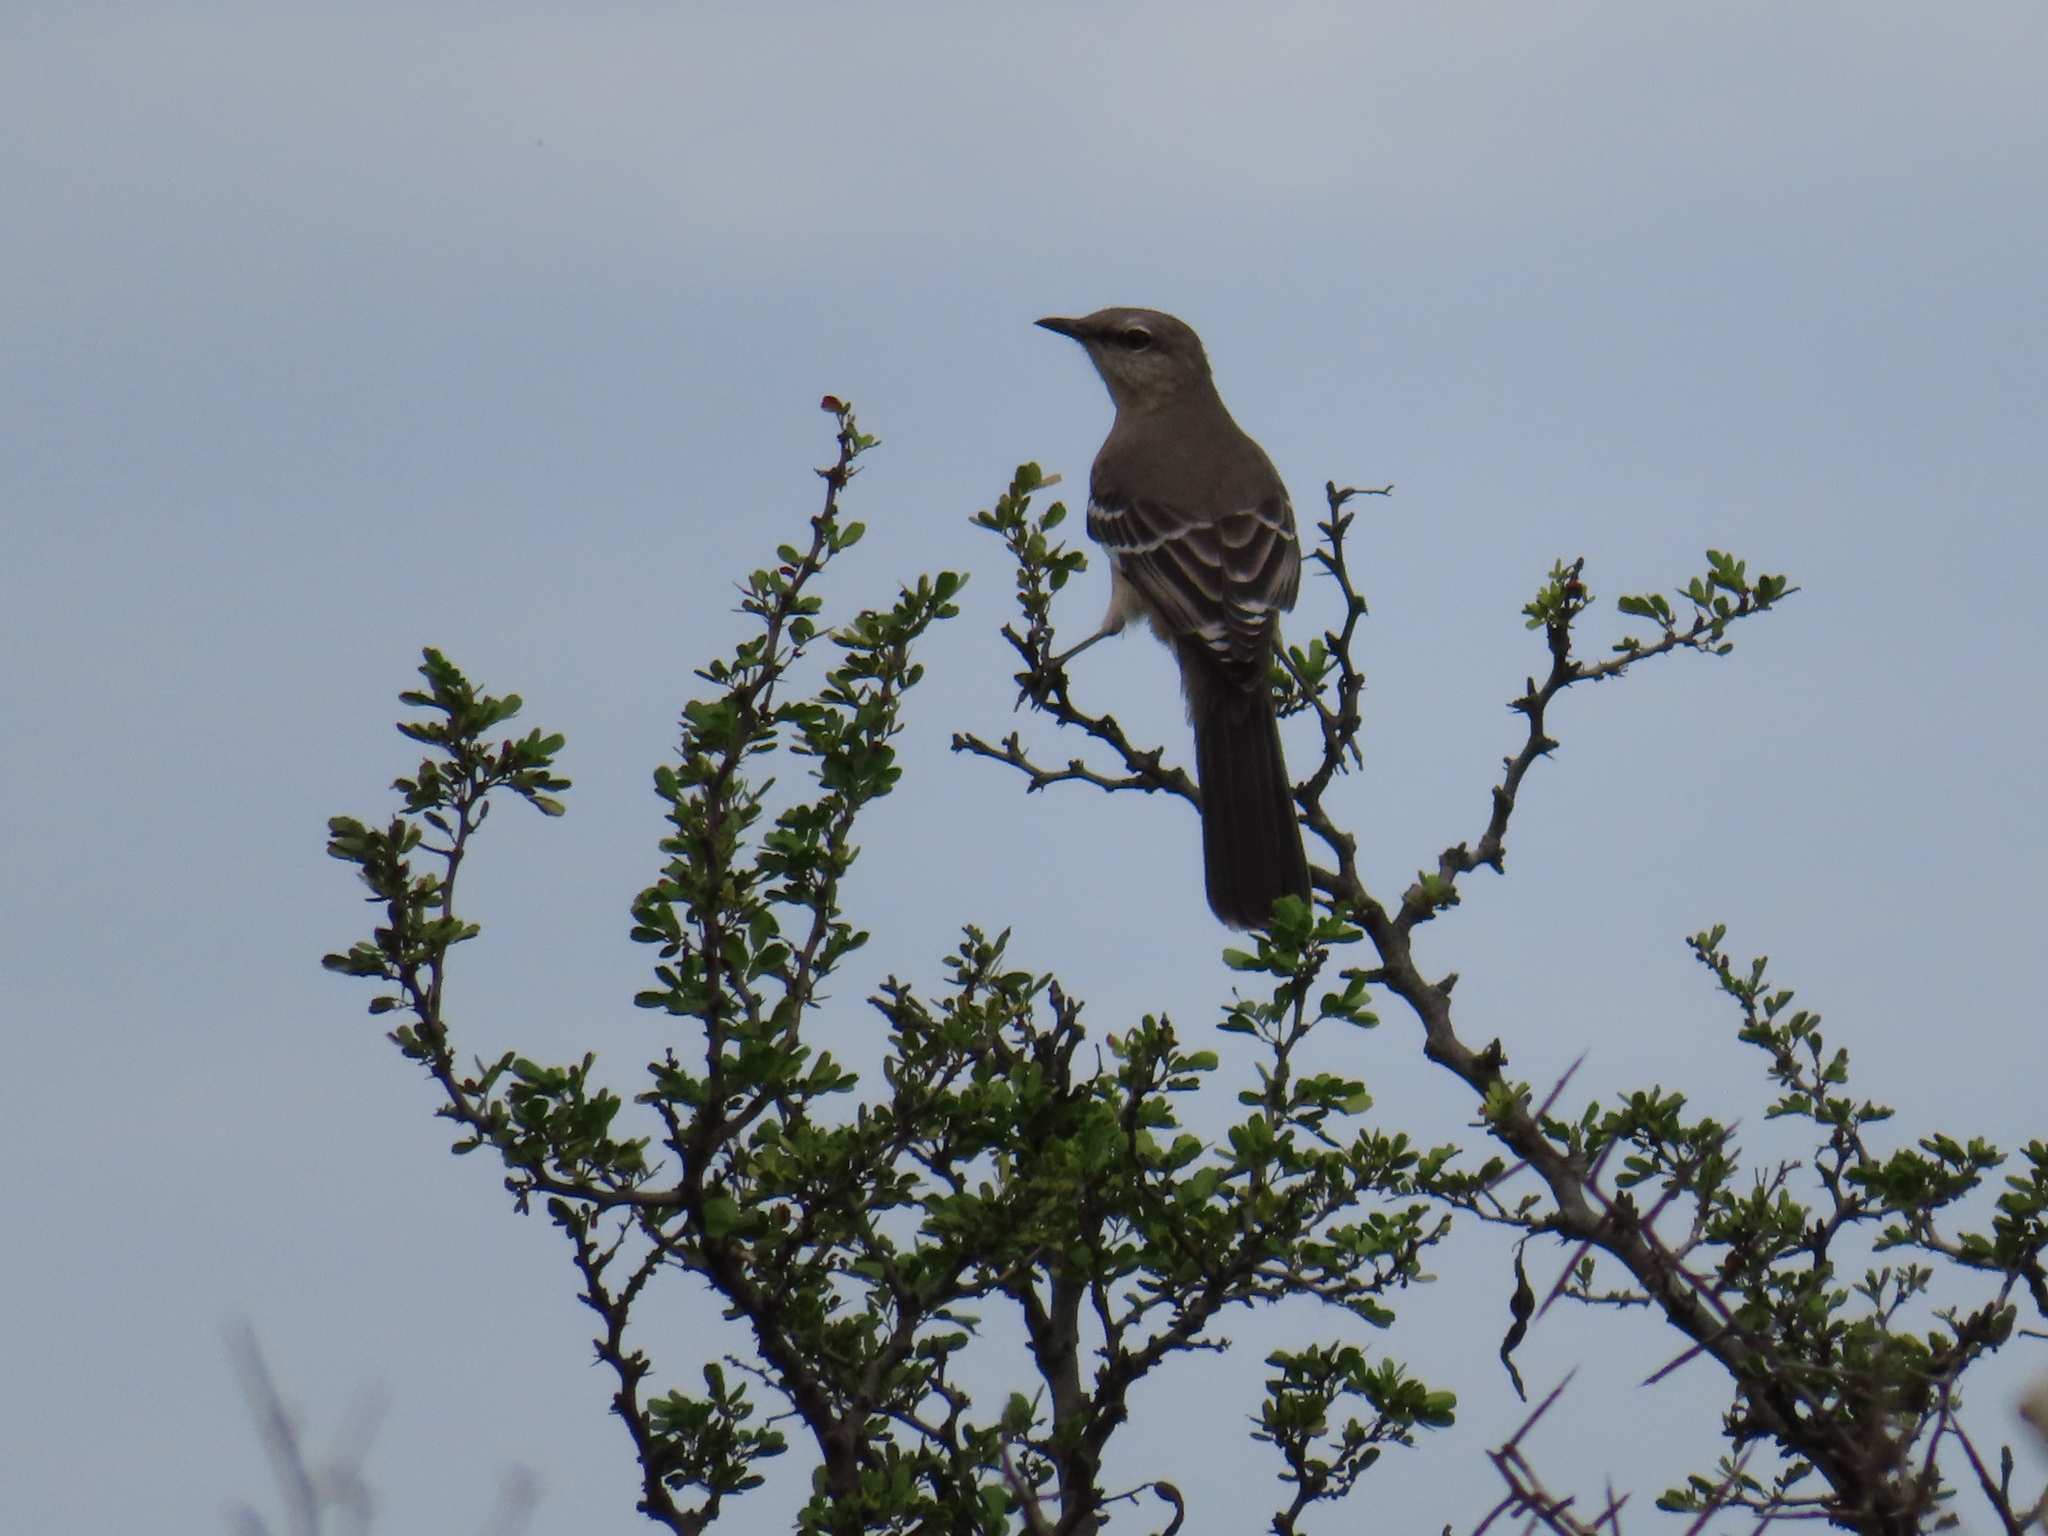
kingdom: Animalia
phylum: Chordata
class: Aves
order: Passeriformes
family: Mimidae
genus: Mimus
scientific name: Mimus polyglottos
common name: Northern mockingbird
